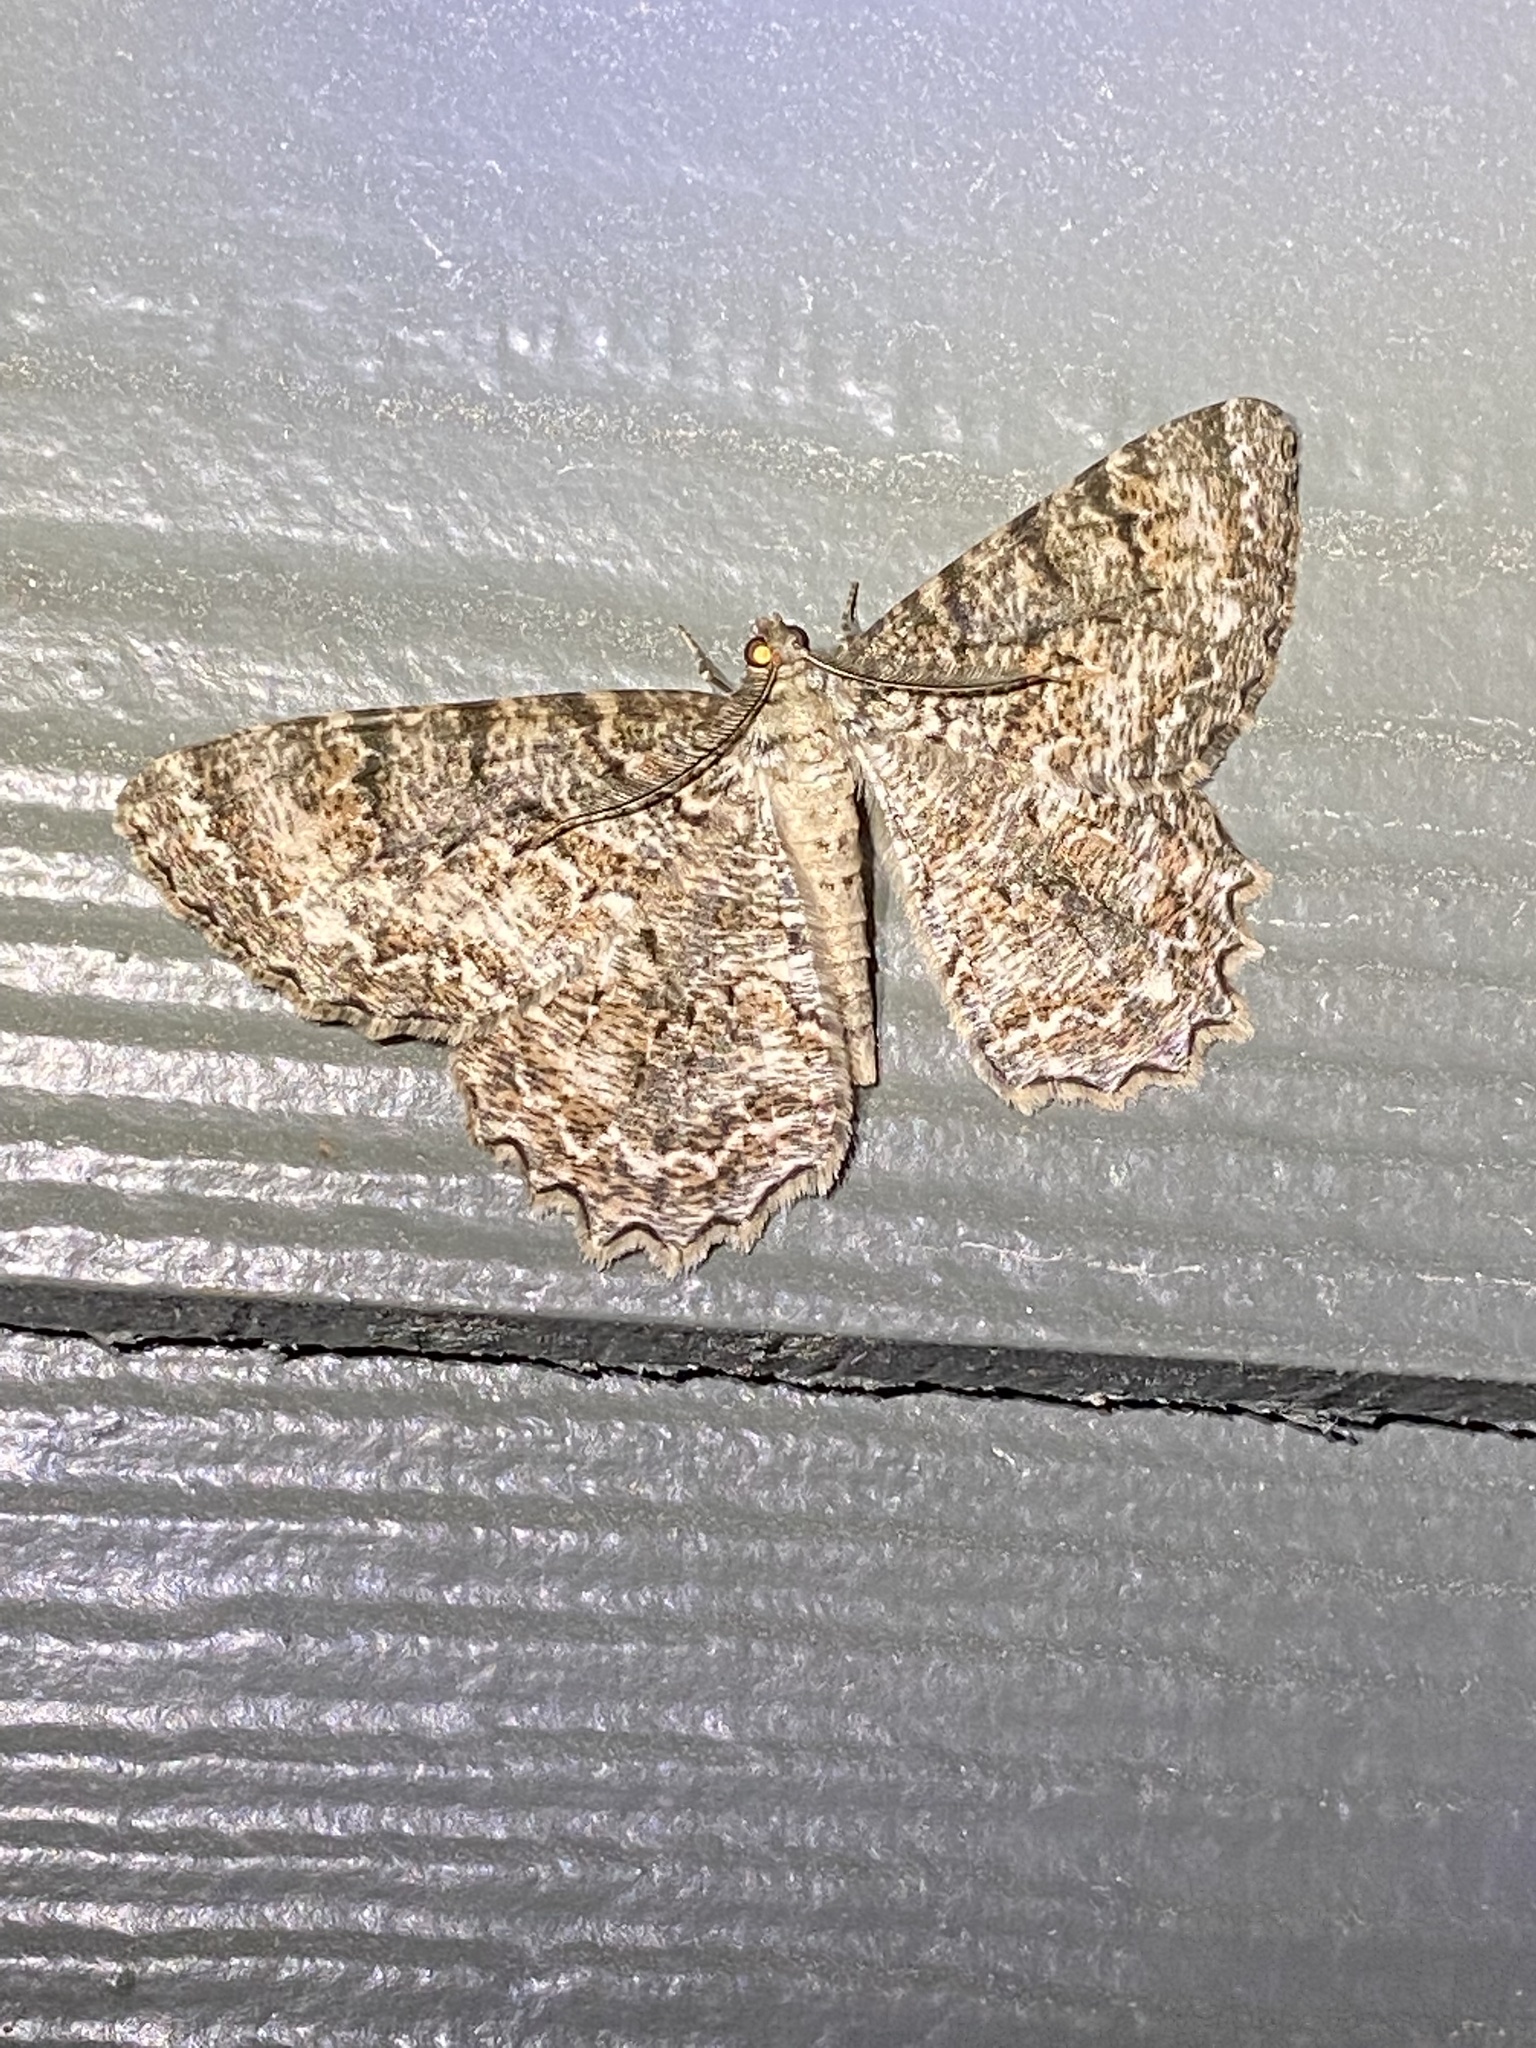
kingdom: Animalia
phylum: Arthropoda
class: Insecta
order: Lepidoptera
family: Geometridae
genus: Epimecis
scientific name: Epimecis hortaria
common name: Tulip-tree beauty
